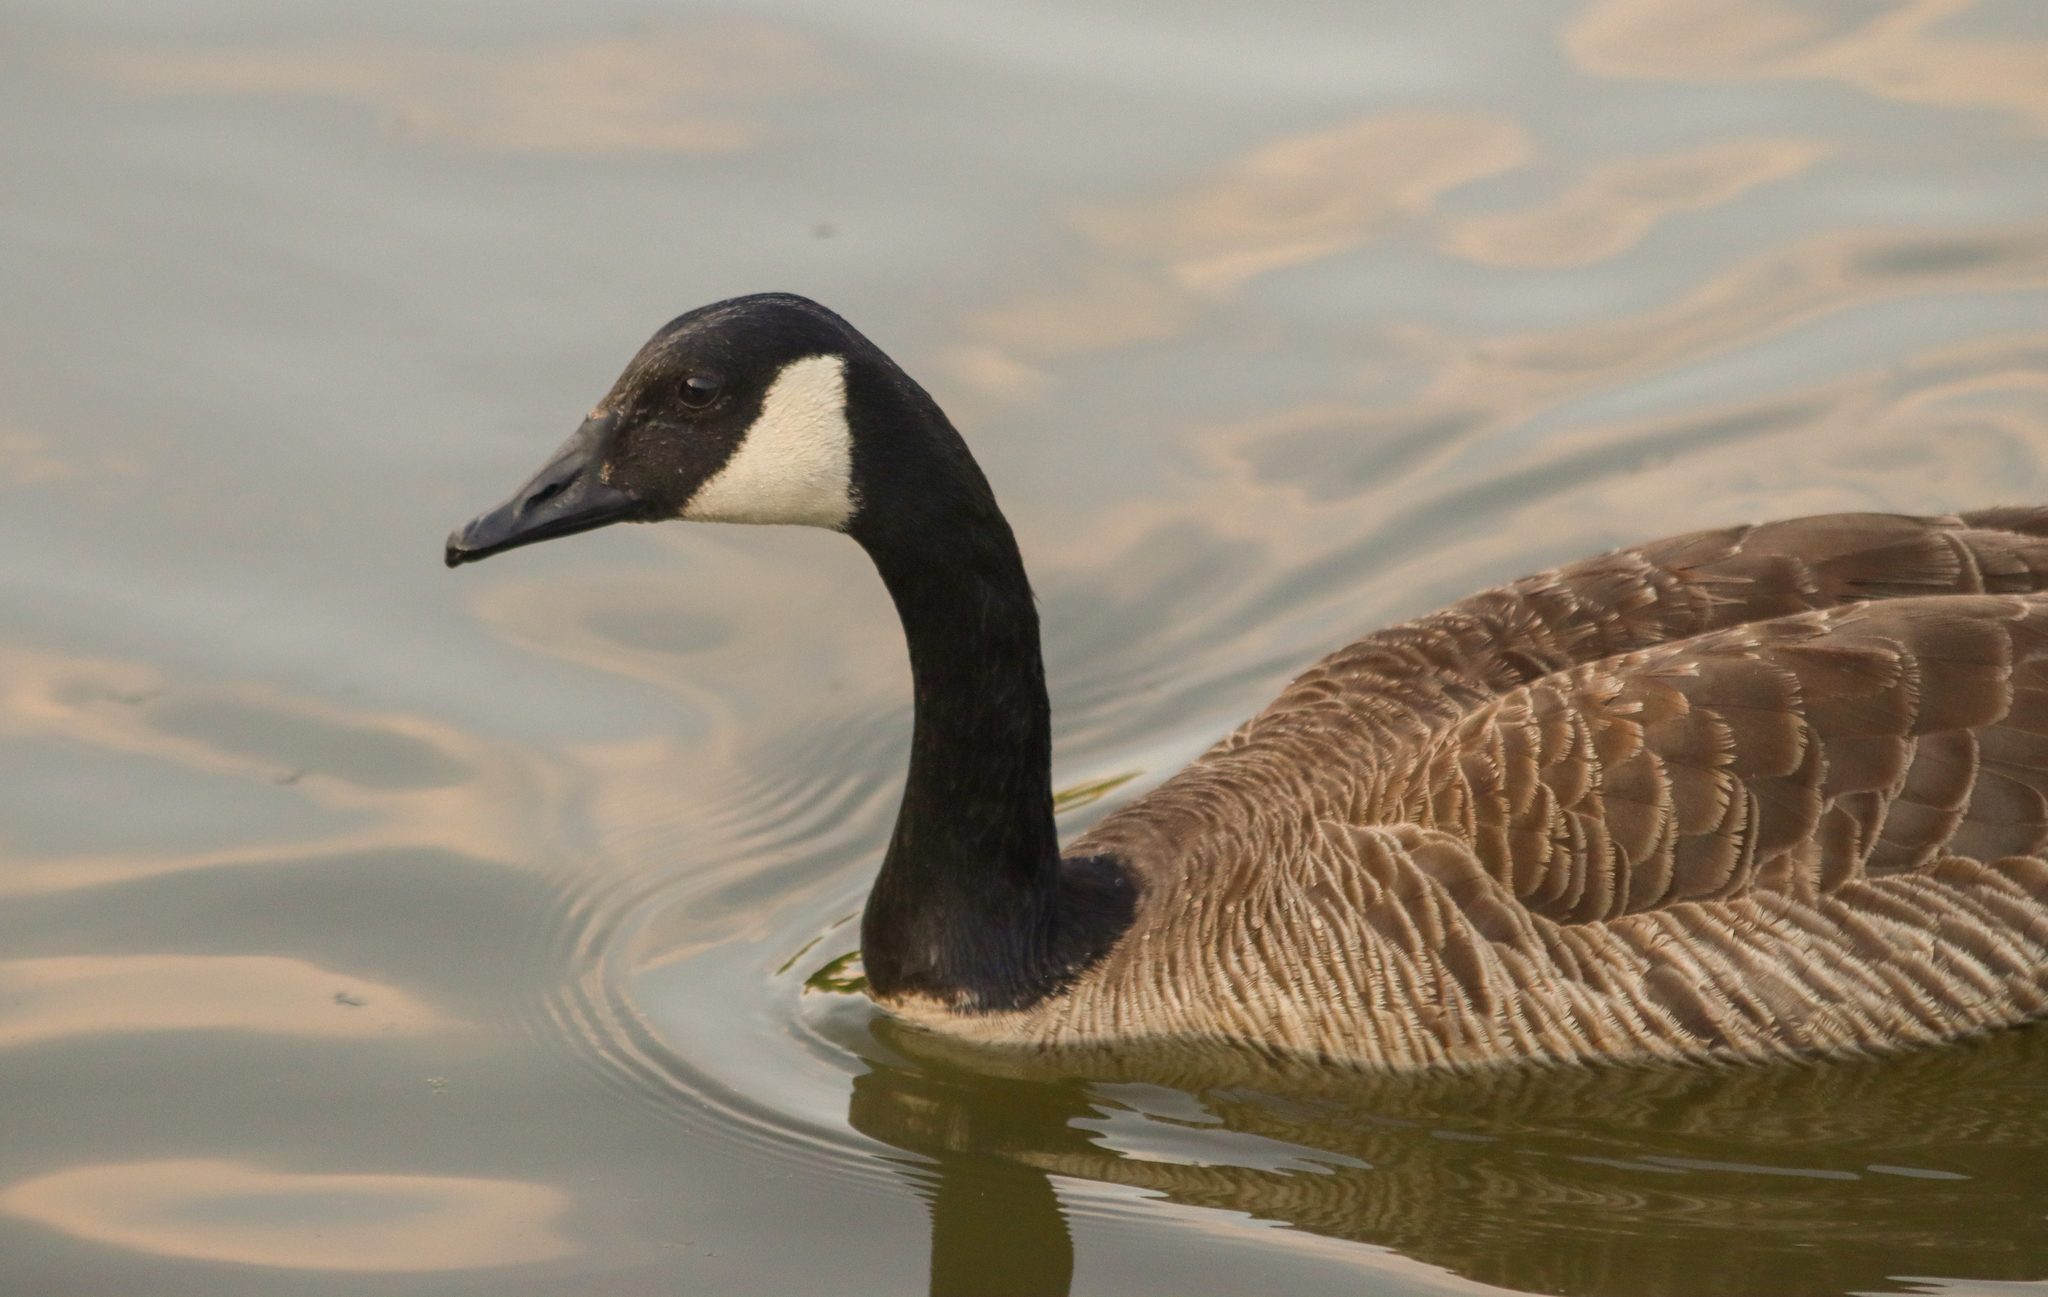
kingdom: Animalia
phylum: Chordata
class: Aves
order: Anseriformes
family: Anatidae
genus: Branta
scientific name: Branta canadensis
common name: Canada goose
